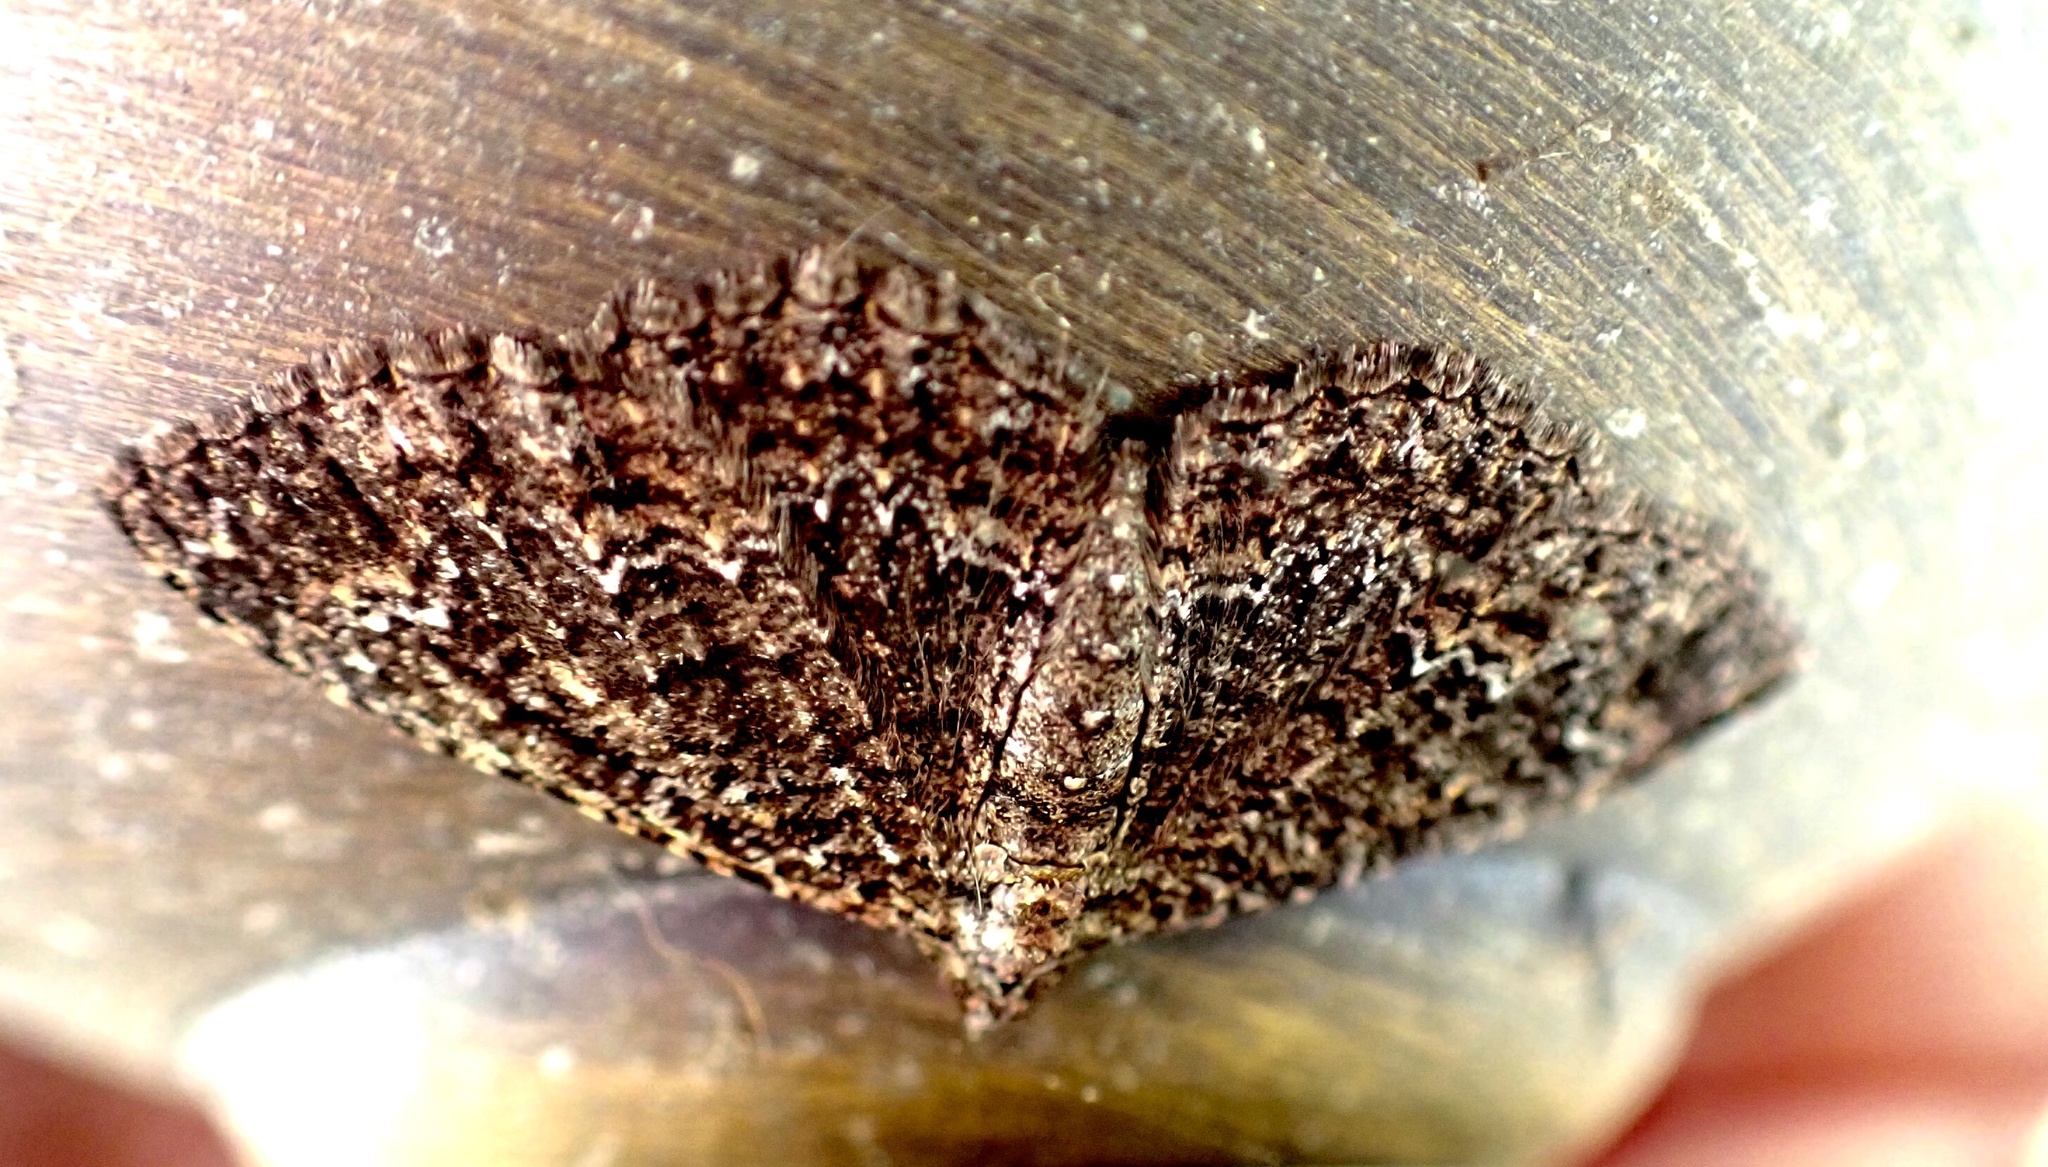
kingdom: Animalia
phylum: Arthropoda
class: Insecta
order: Lepidoptera
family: Geometridae
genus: Disclisioprocta
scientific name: Disclisioprocta stellata
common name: Somber carpet
